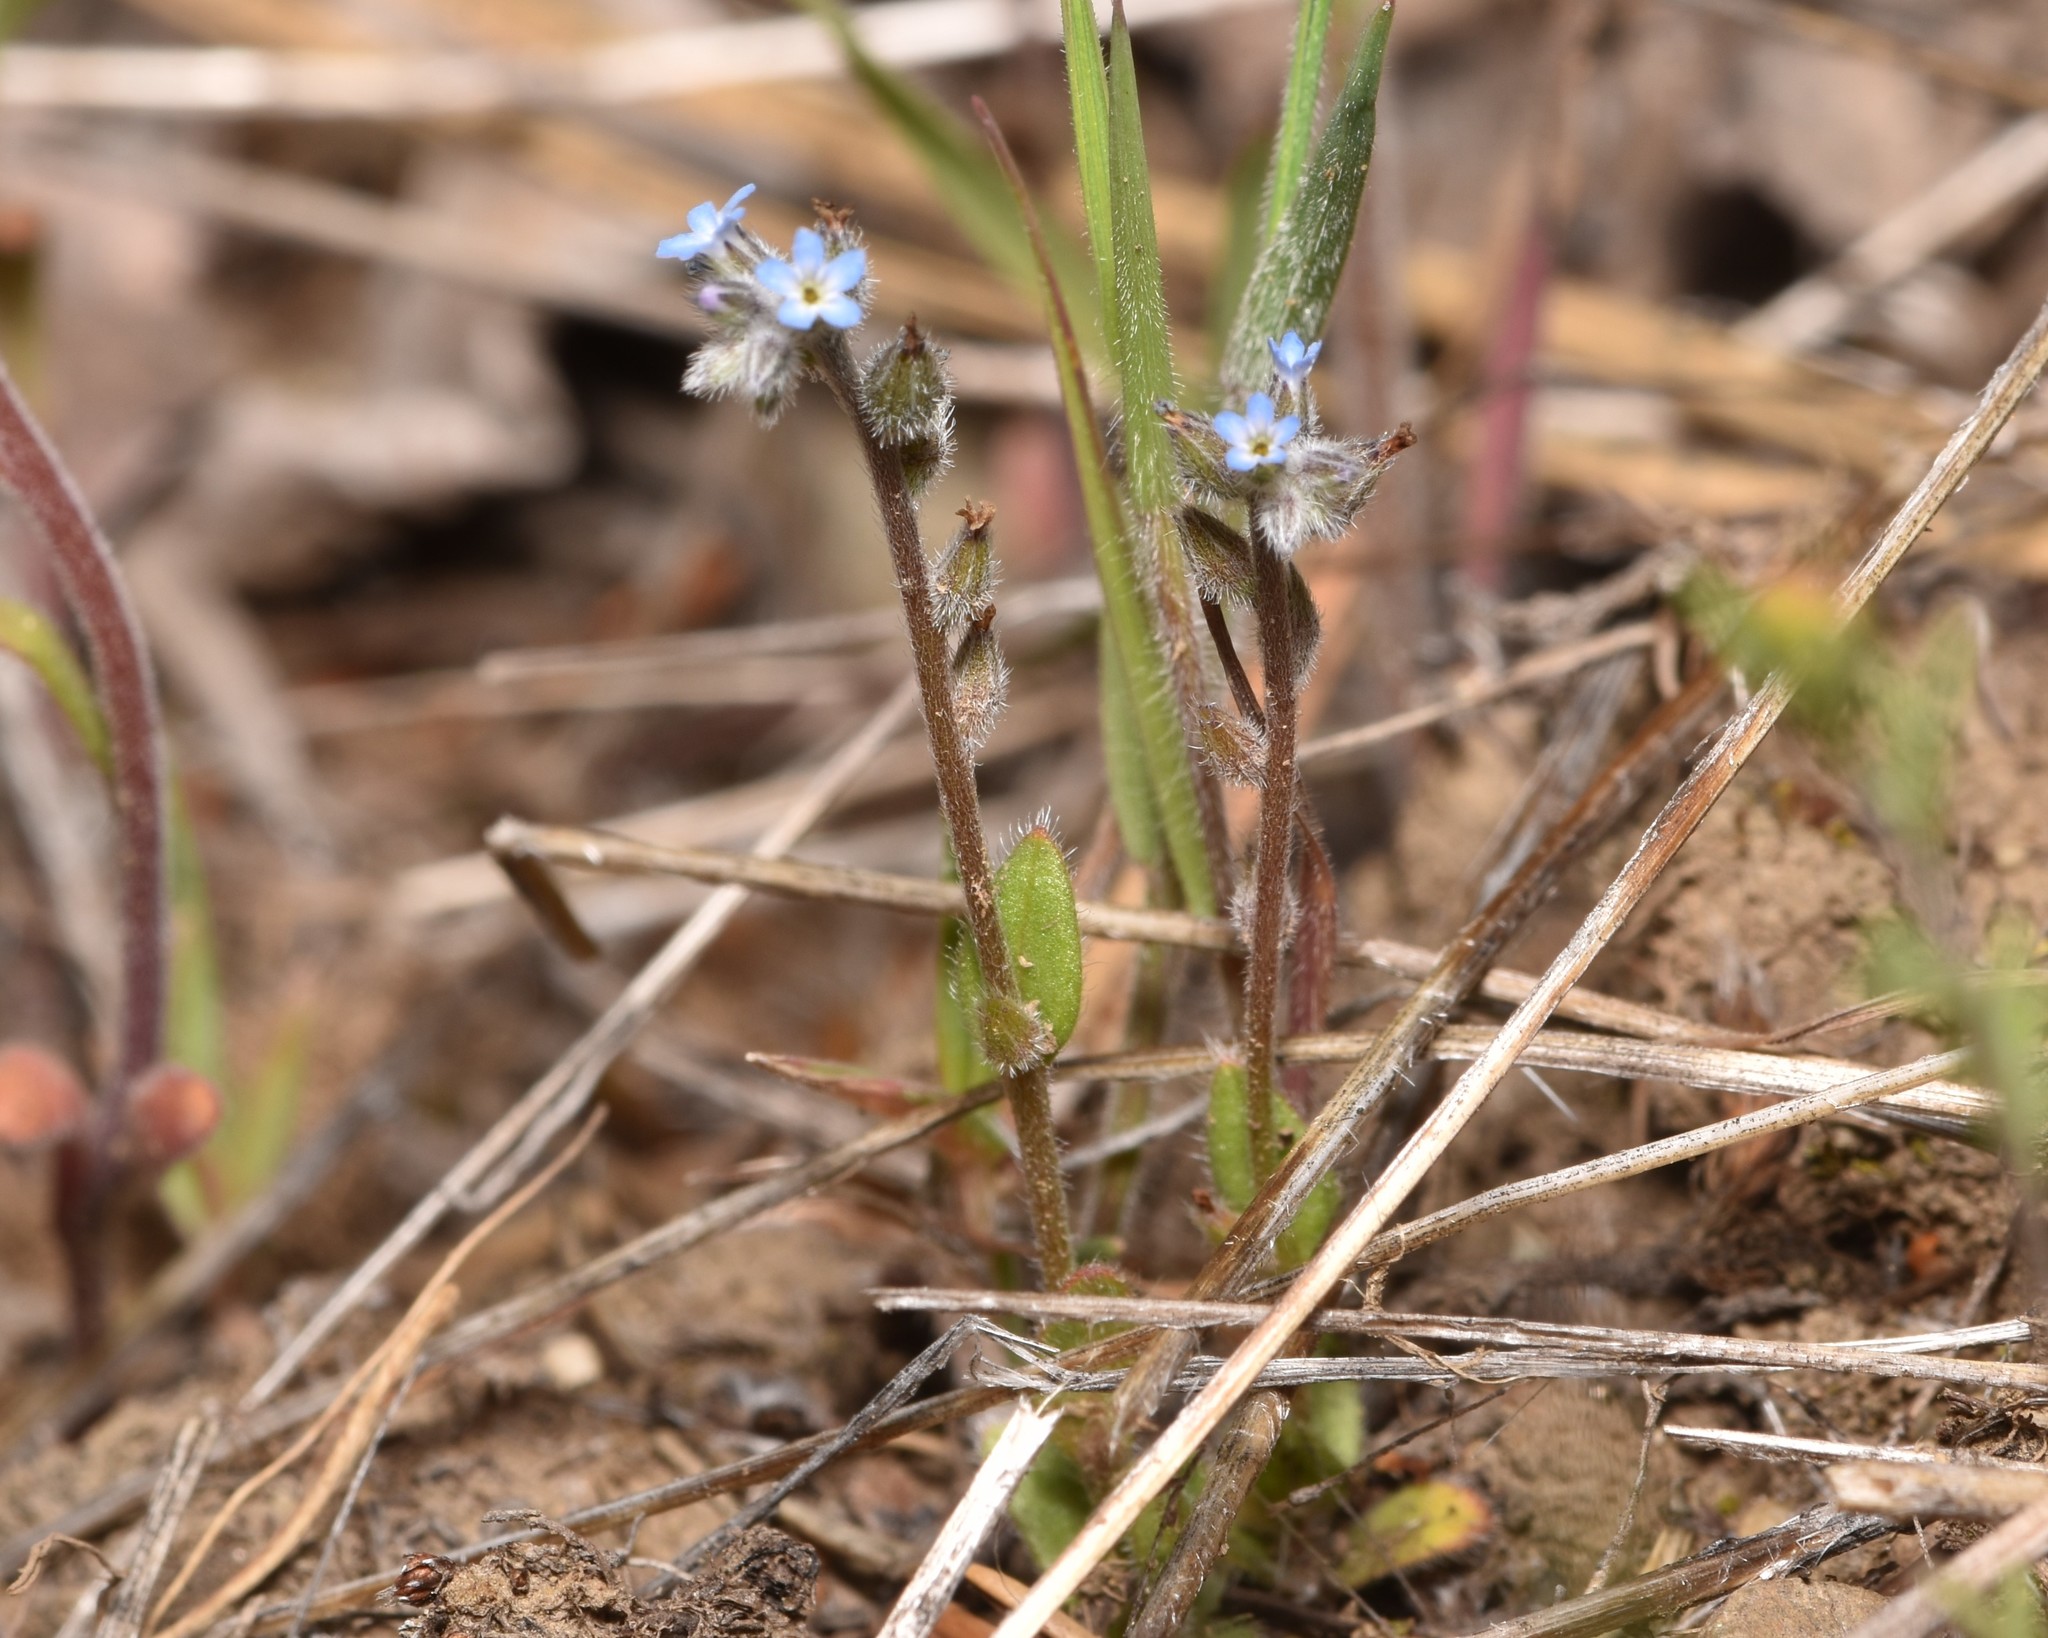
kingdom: Plantae
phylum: Tracheophyta
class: Magnoliopsida
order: Boraginales
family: Boraginaceae
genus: Myosotis
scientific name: Myosotis stricta
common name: Strict forget-me-not
